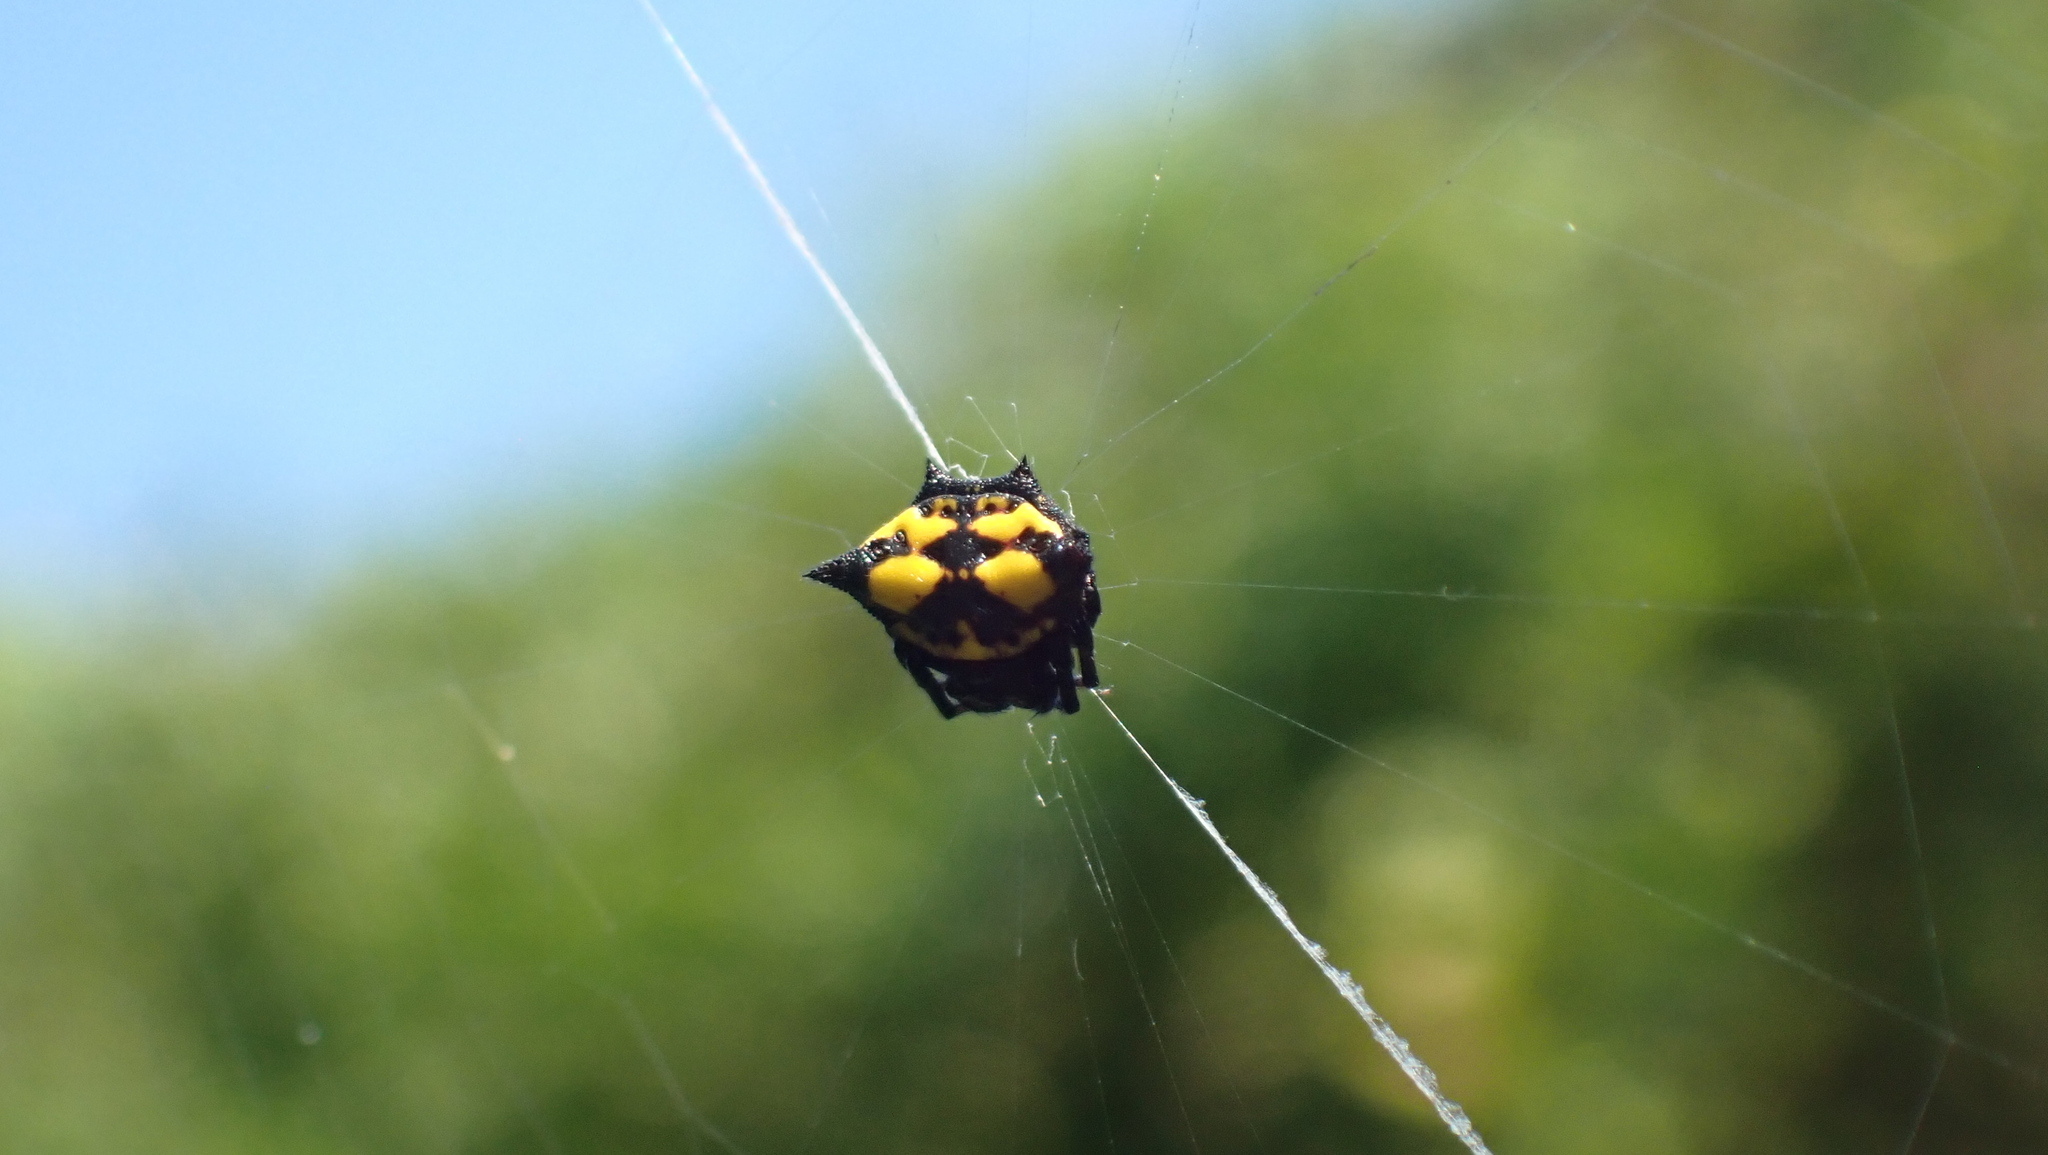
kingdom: Animalia
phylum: Arthropoda
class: Arachnida
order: Araneae
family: Araneidae
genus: Gasteracantha
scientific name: Gasteracantha cancriformis
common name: Orb weavers
